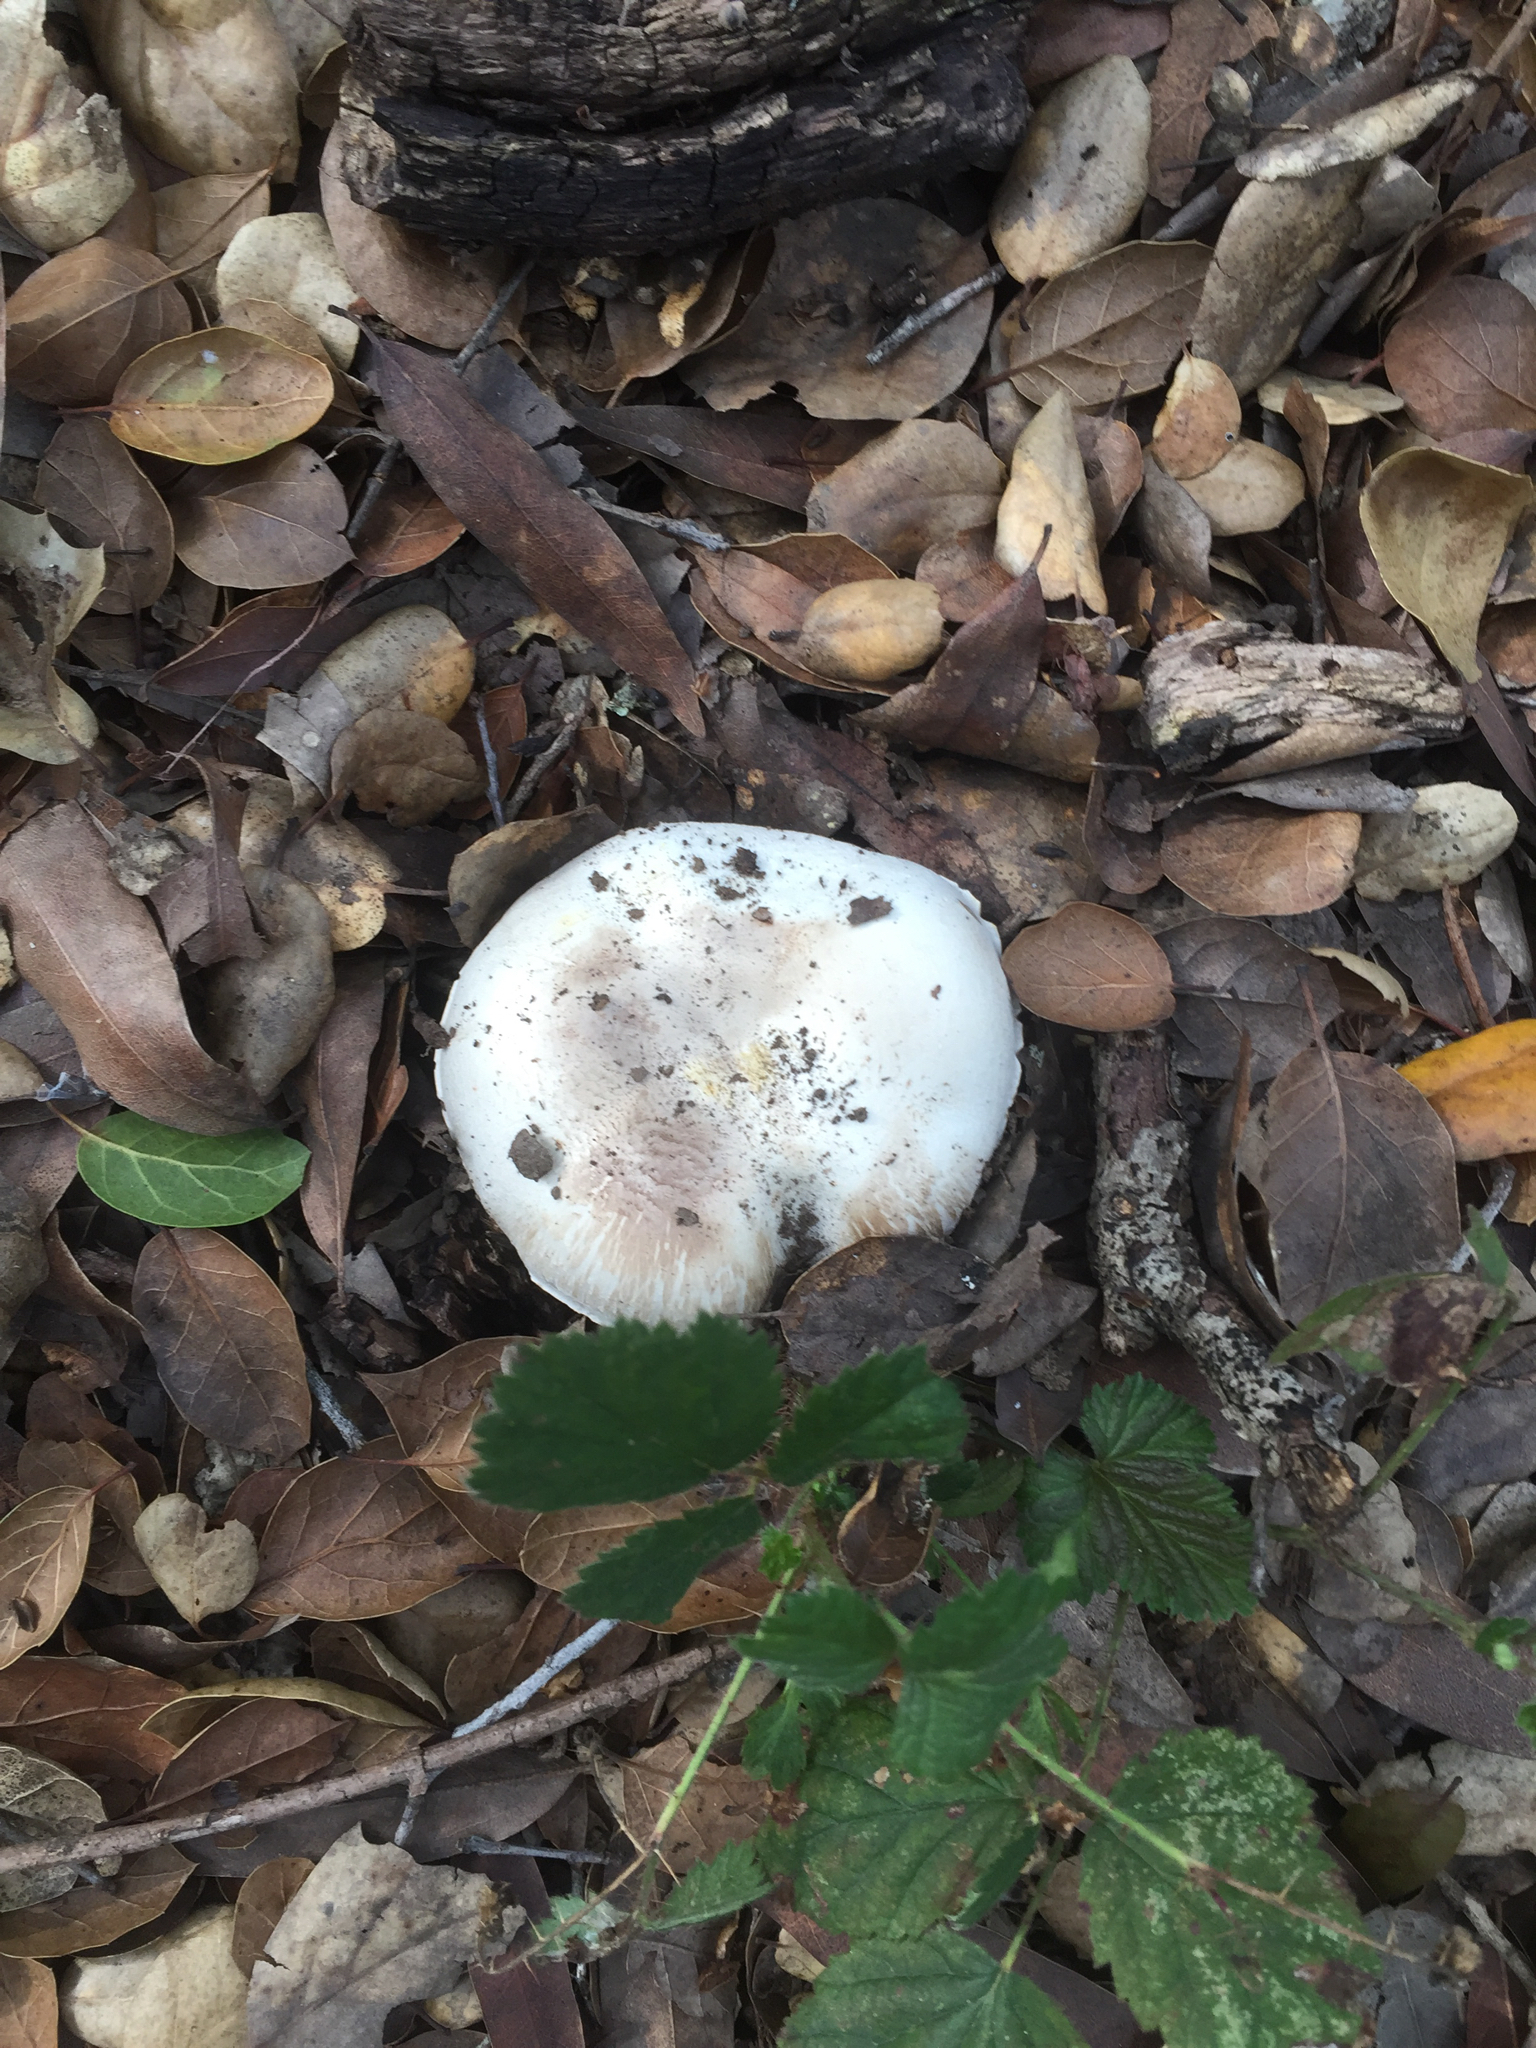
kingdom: Fungi
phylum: Basidiomycota
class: Agaricomycetes
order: Agaricales
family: Agaricaceae
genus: Agaricus
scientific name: Agaricus xanthodermus
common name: Yellow stainer
